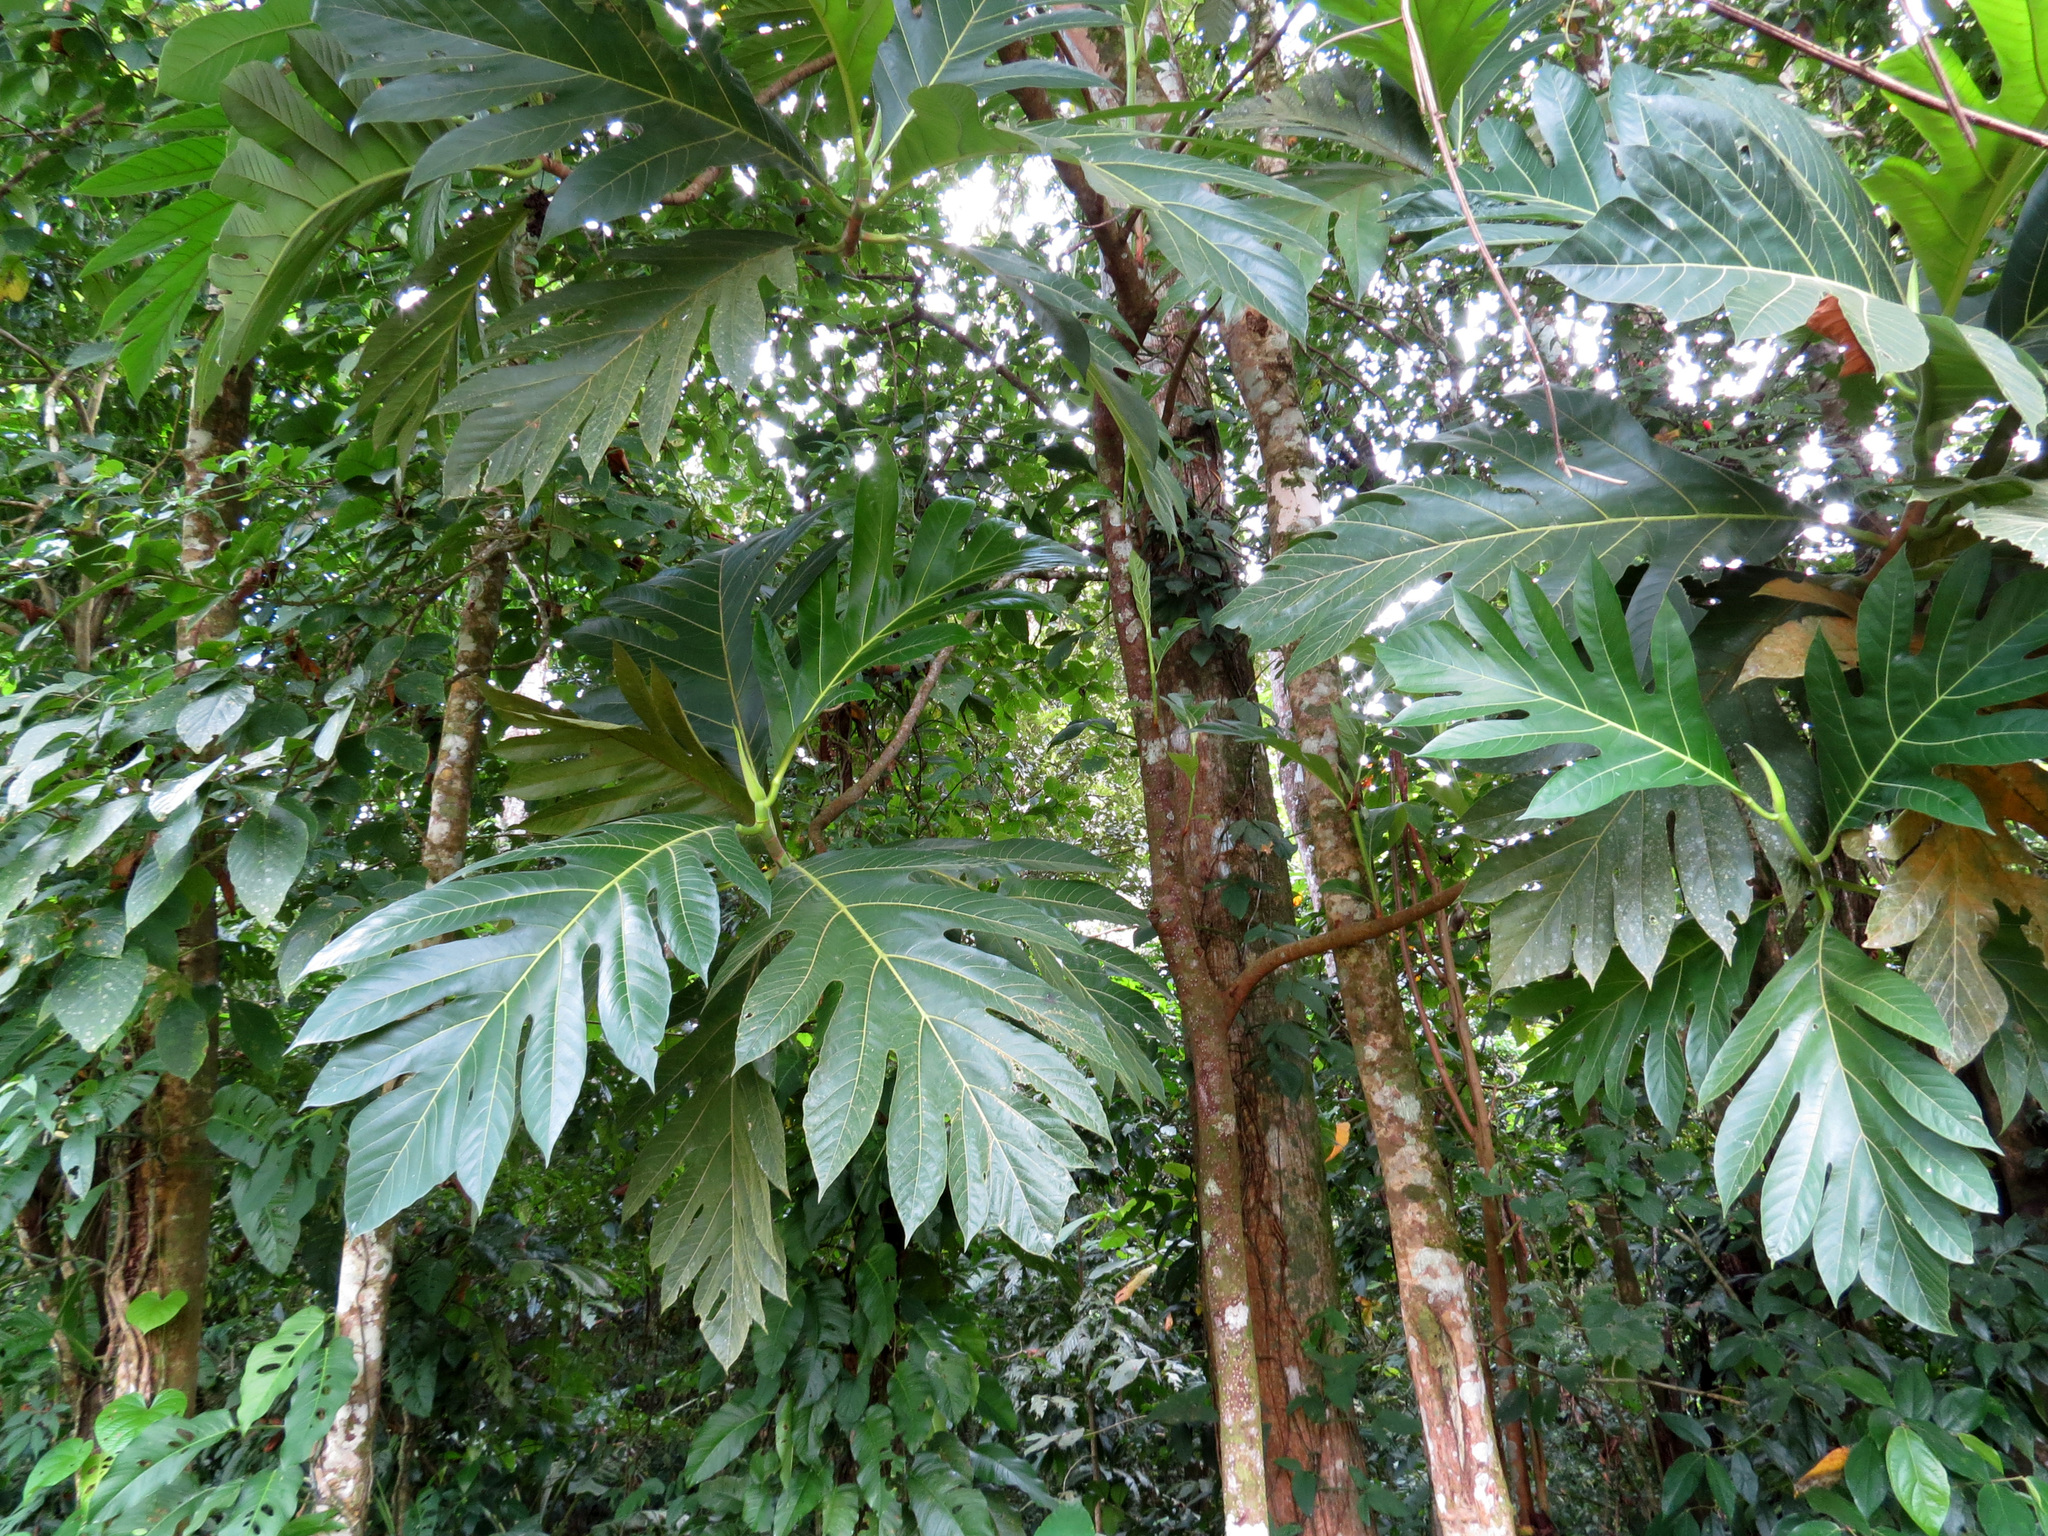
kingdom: Plantae
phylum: Tracheophyta
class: Magnoliopsida
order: Rosales
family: Moraceae
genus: Artocarpus
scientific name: Artocarpus altilis
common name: Breadfruit
